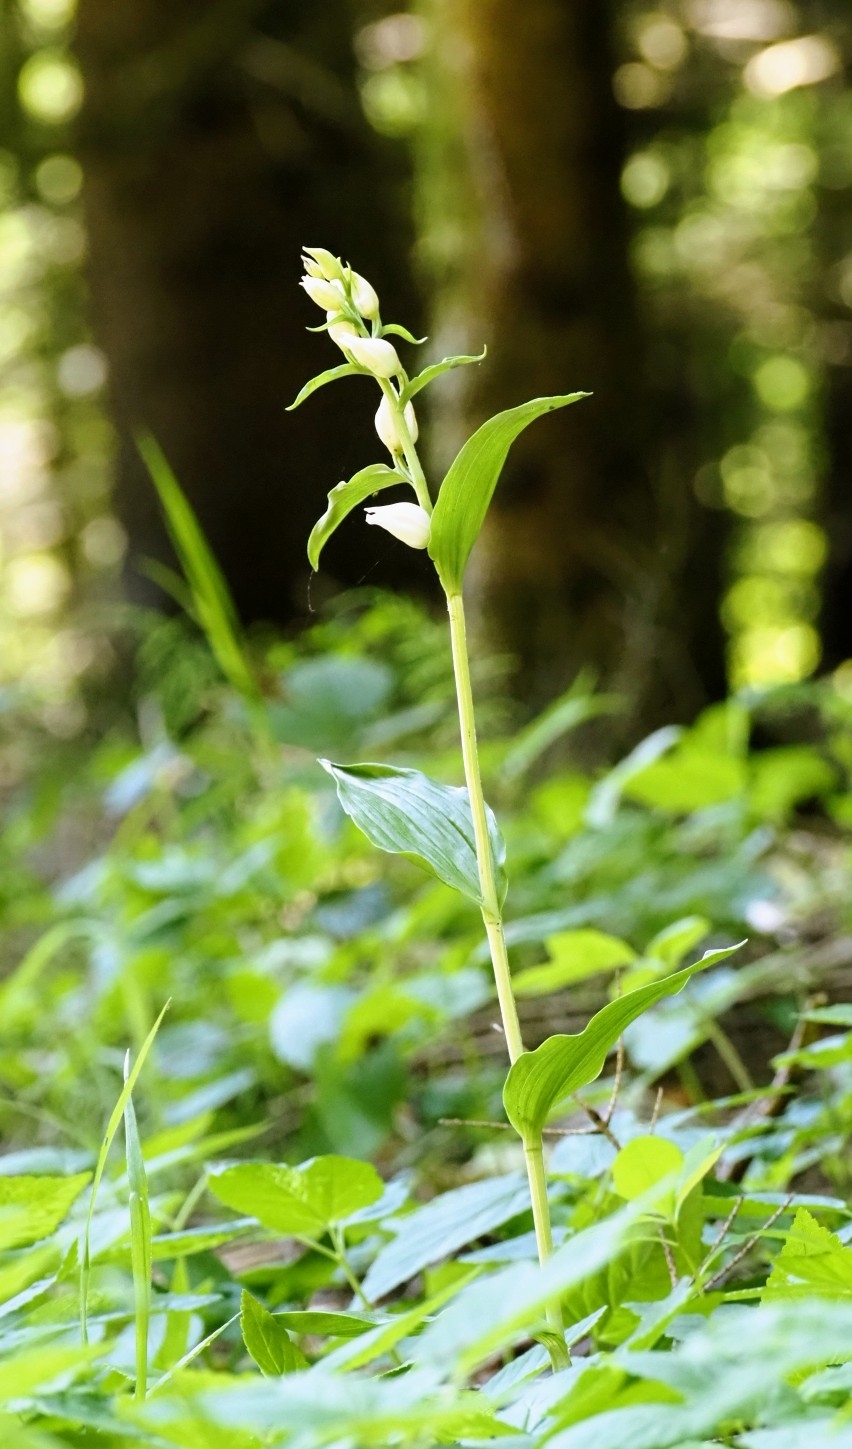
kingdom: Plantae
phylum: Tracheophyta
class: Liliopsida
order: Asparagales
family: Orchidaceae
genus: Cephalanthera
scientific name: Cephalanthera damasonium
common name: White helleborine
